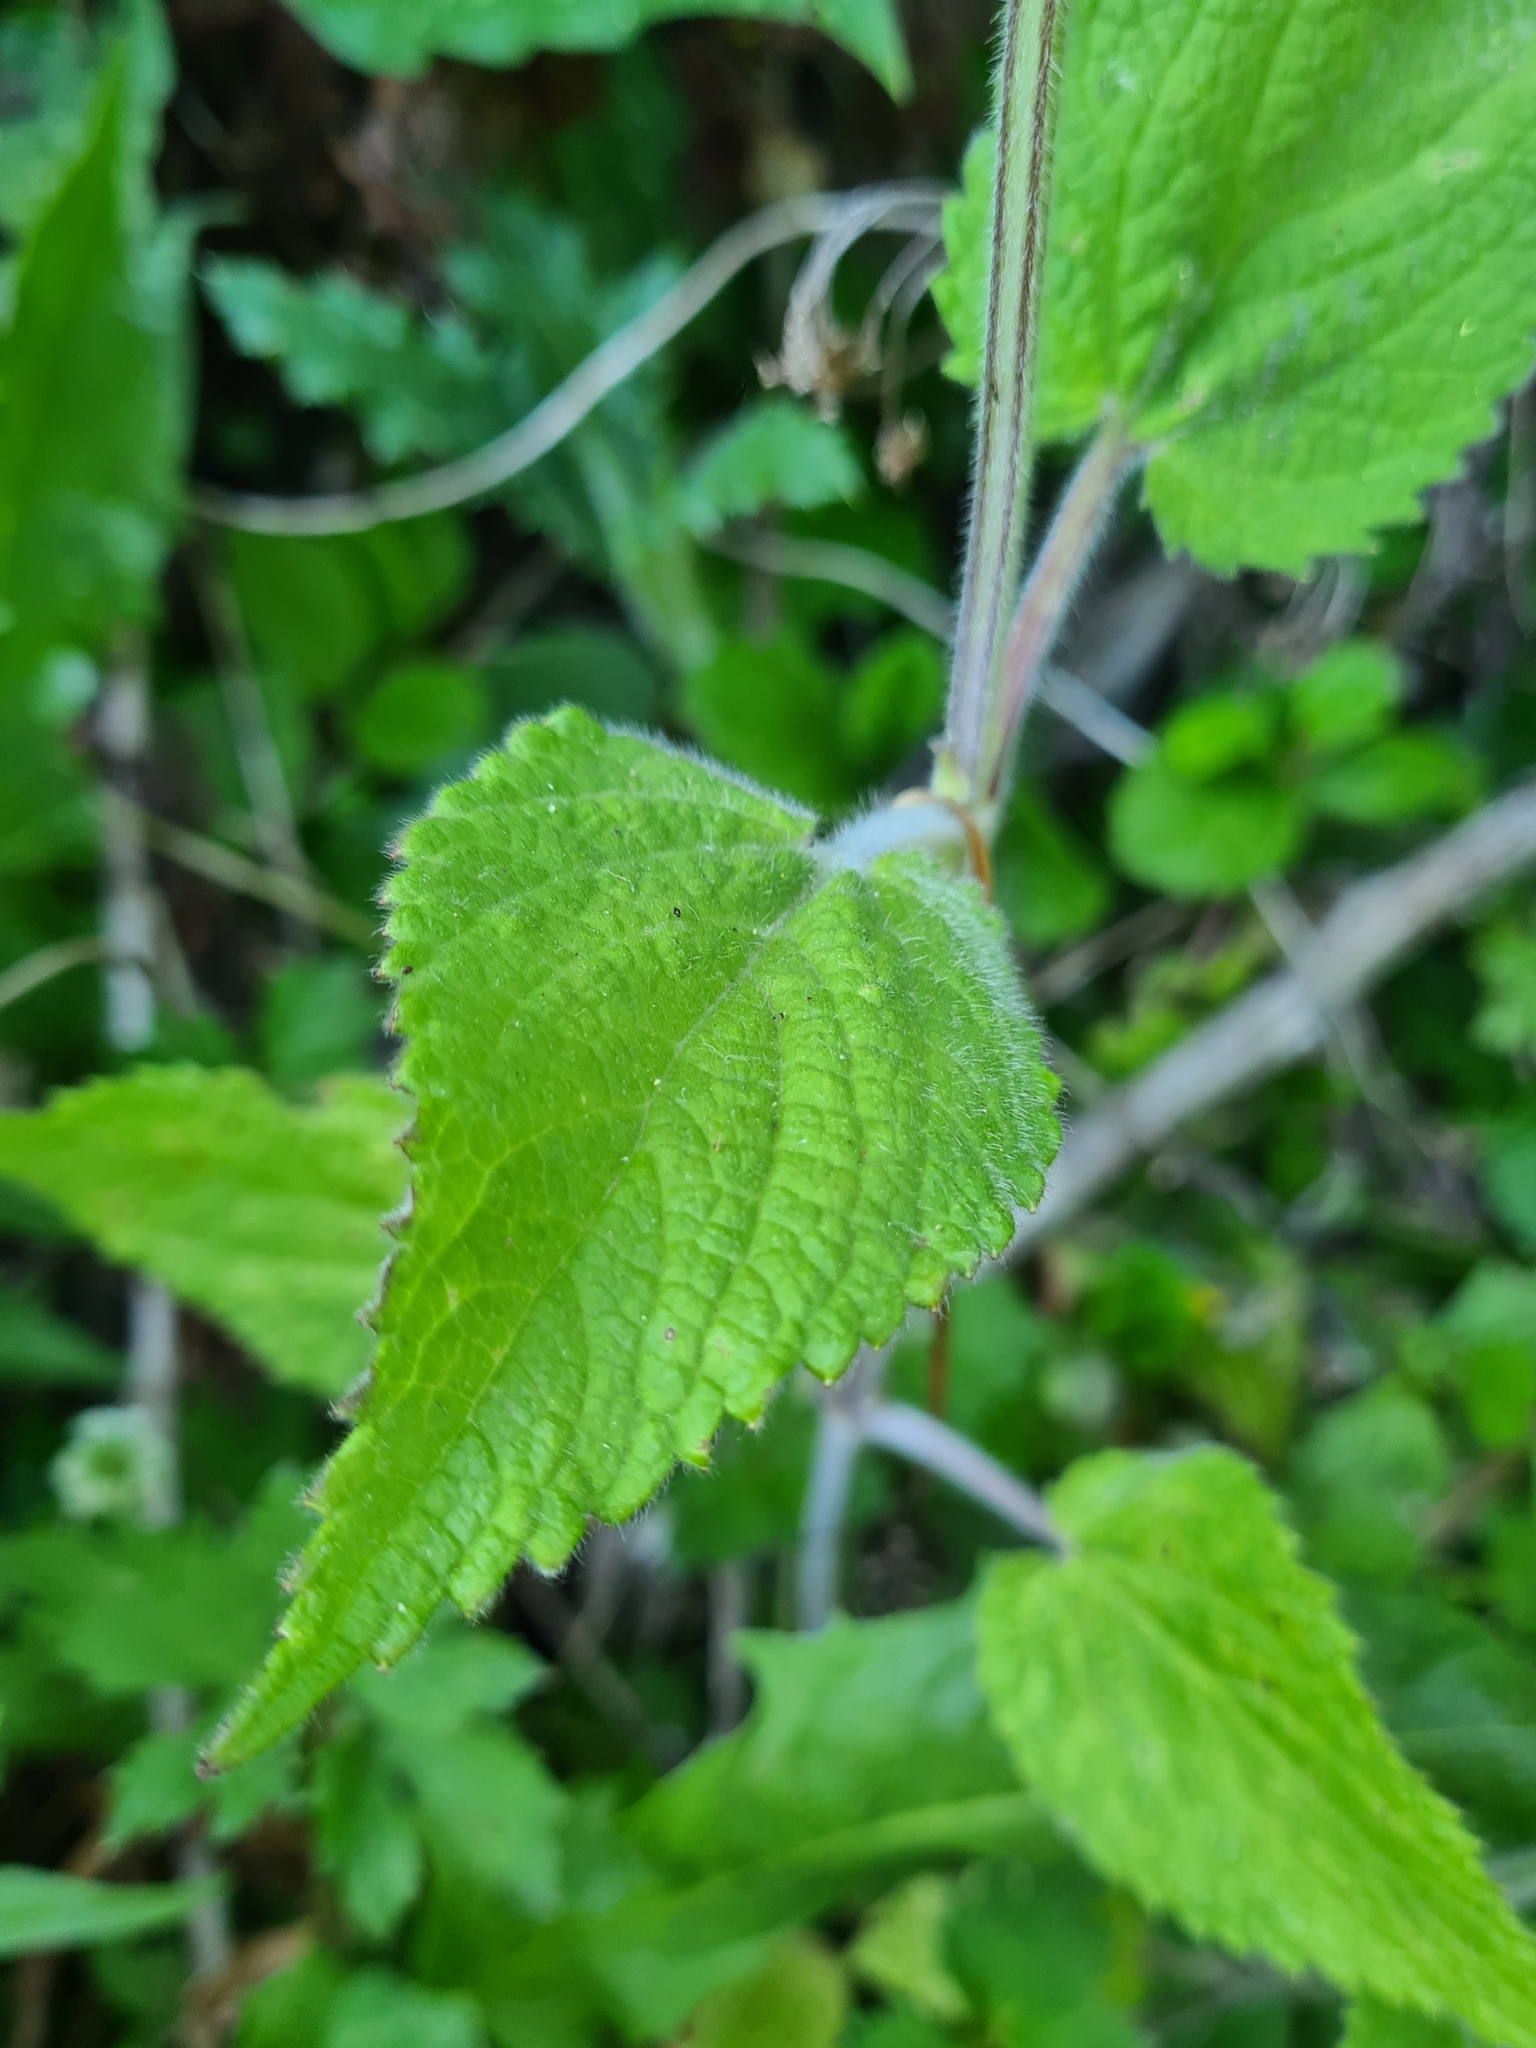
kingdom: Plantae
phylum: Tracheophyta
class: Magnoliopsida
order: Lamiales
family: Lamiaceae
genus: Stachys
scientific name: Stachys sylvatica
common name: Hedge woundwort
